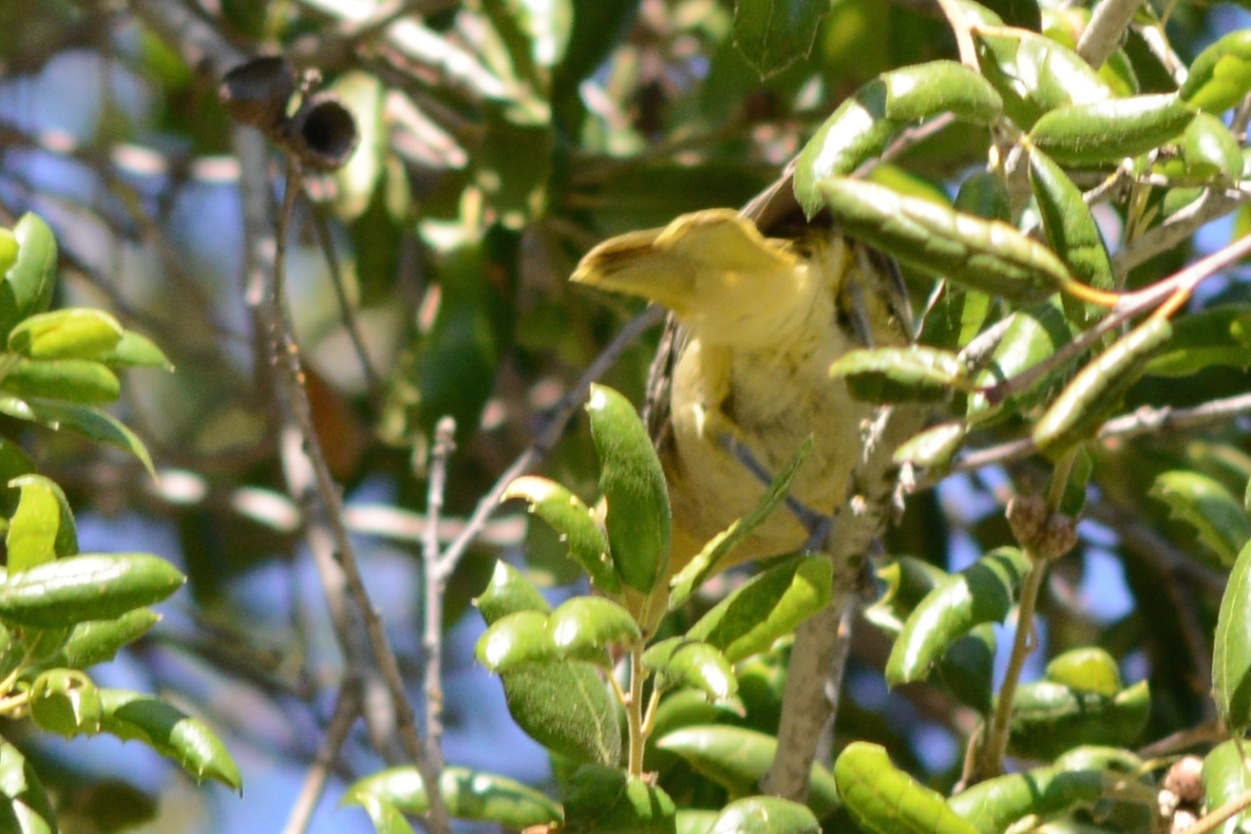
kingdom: Animalia
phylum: Chordata
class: Aves
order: Passeriformes
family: Icteridae
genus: Icterus
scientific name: Icterus cucullatus
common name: Hooded oriole
